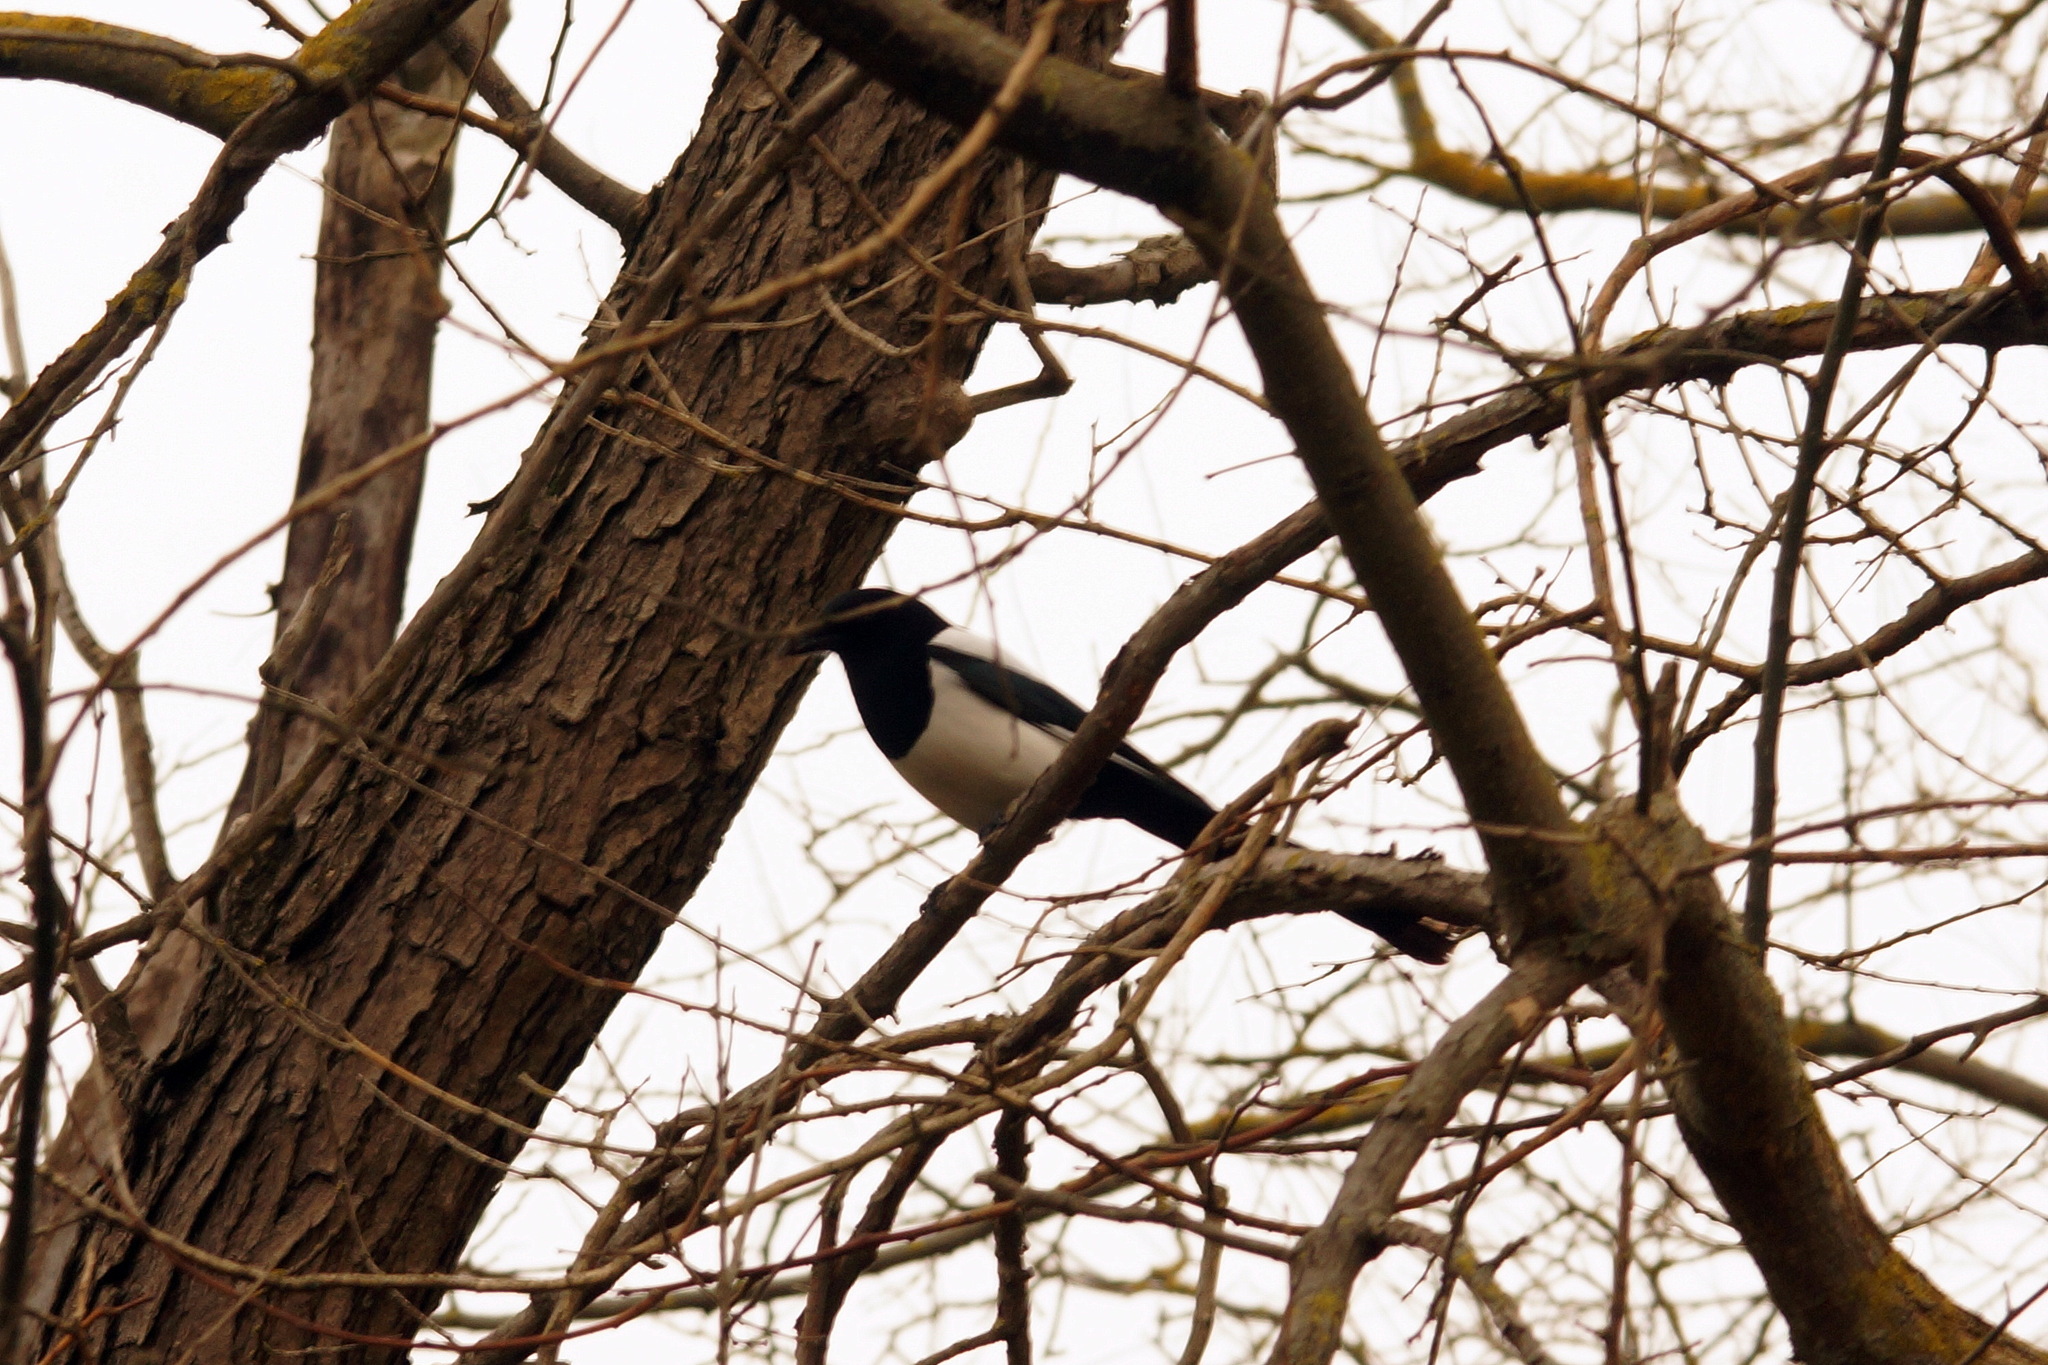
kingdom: Animalia
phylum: Chordata
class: Aves
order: Passeriformes
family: Corvidae
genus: Pica
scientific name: Pica pica
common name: Eurasian magpie
